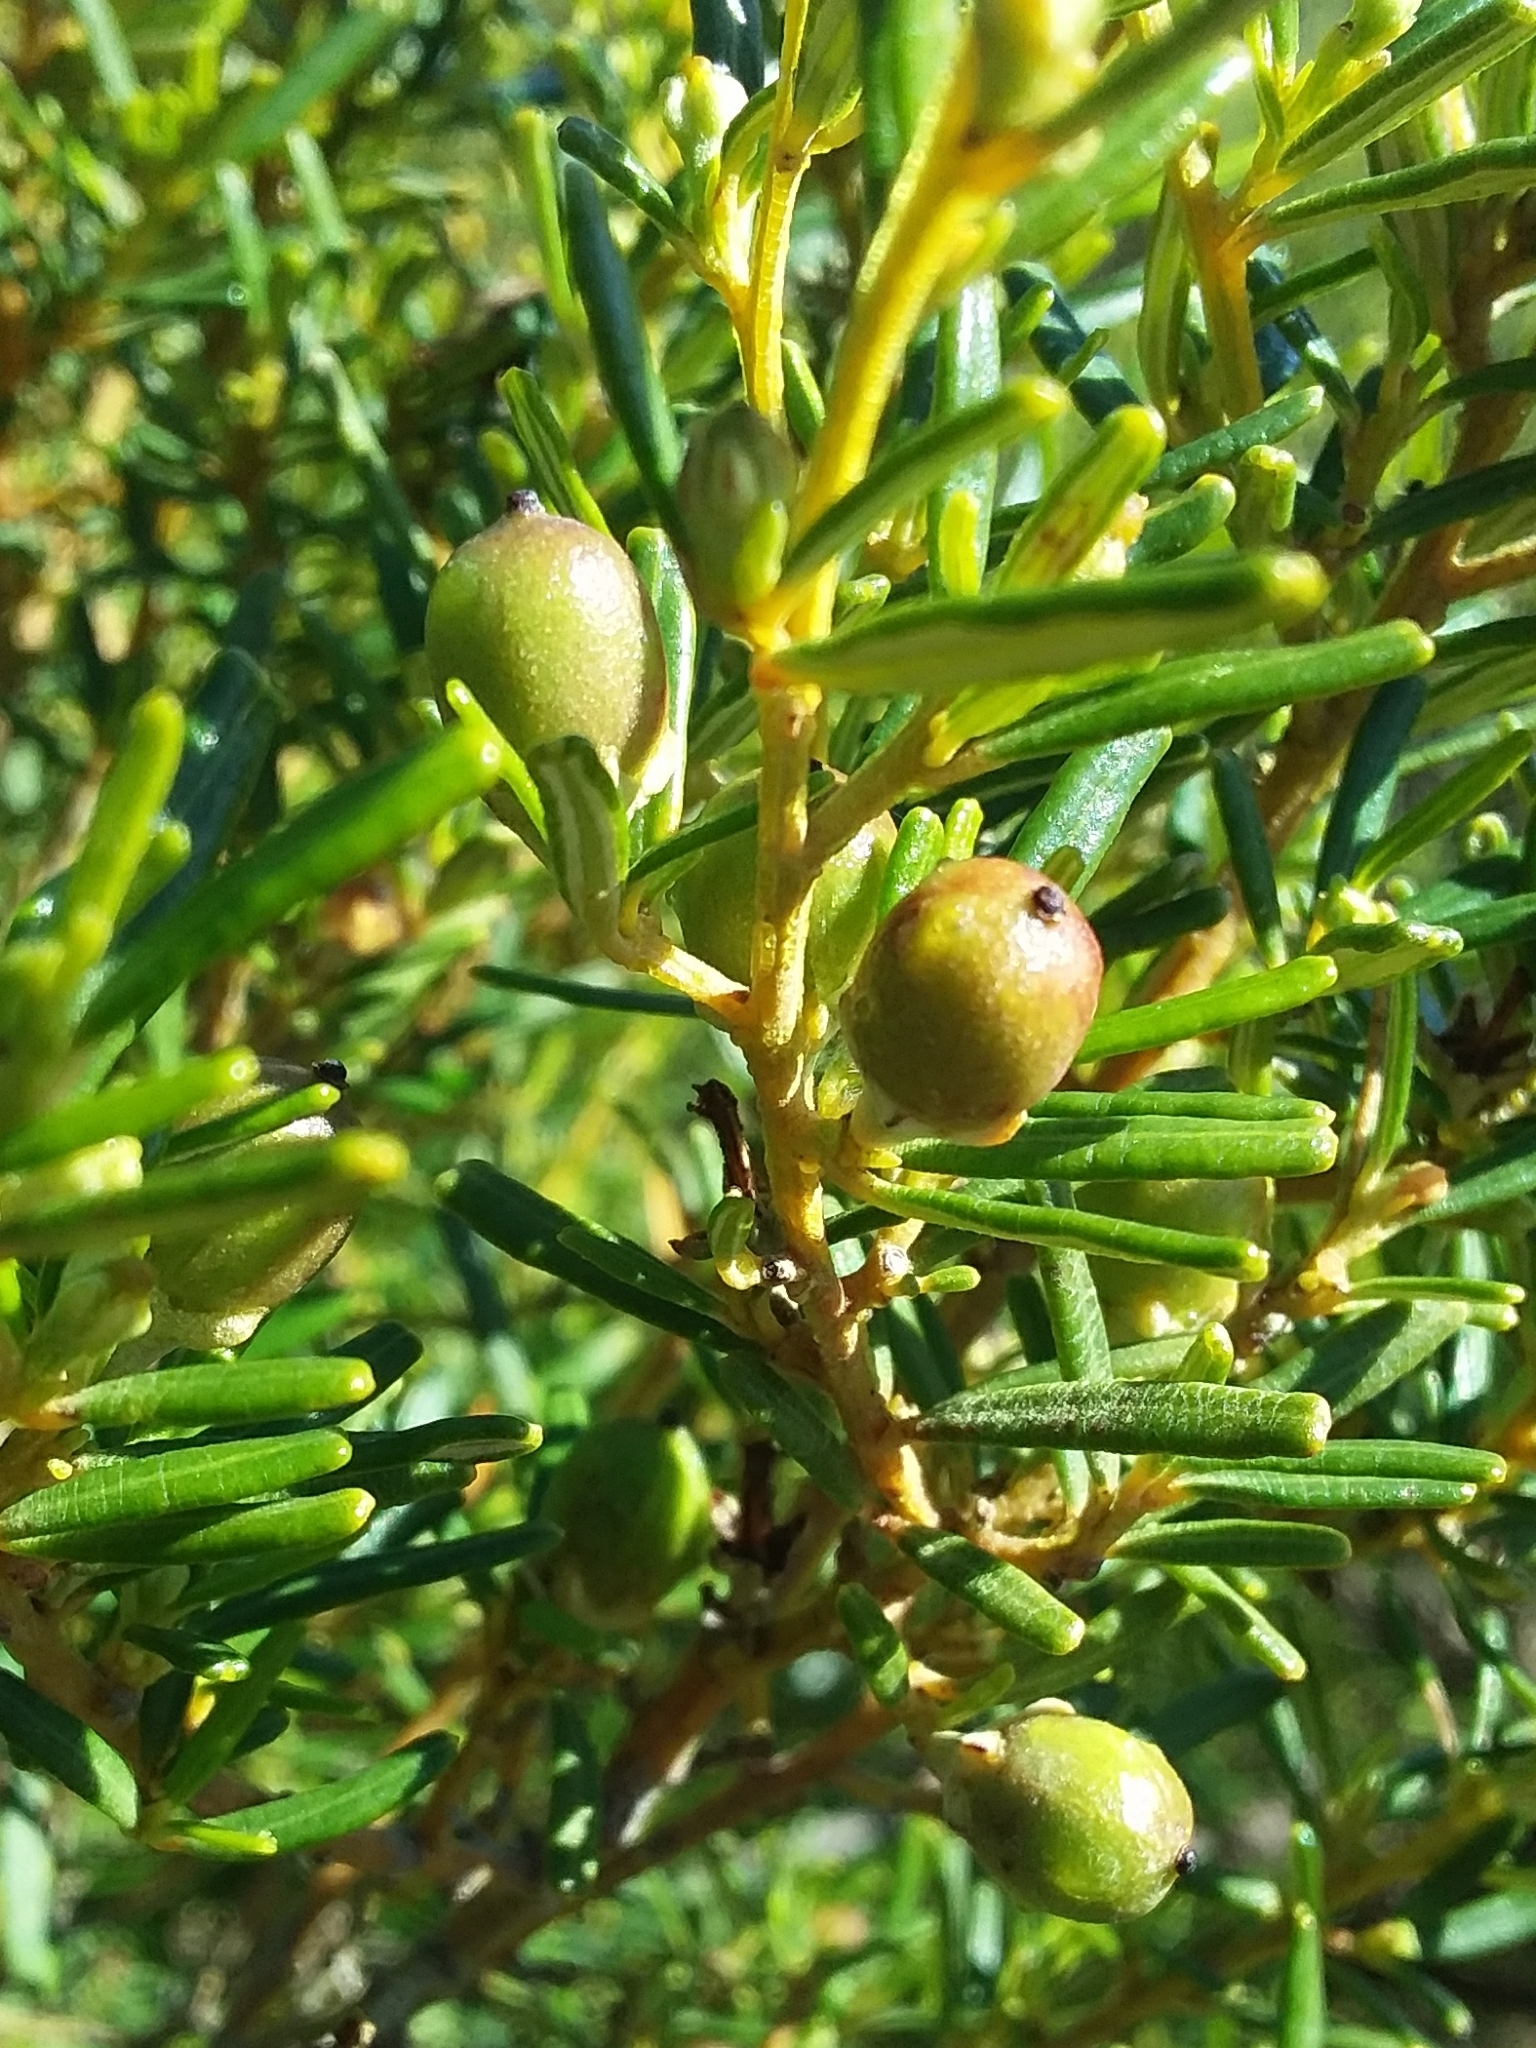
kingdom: Plantae
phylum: Tracheophyta
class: Magnoliopsida
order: Malpighiales
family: Euphorbiaceae
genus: Beyeria
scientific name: Beyeria lechenaultii
